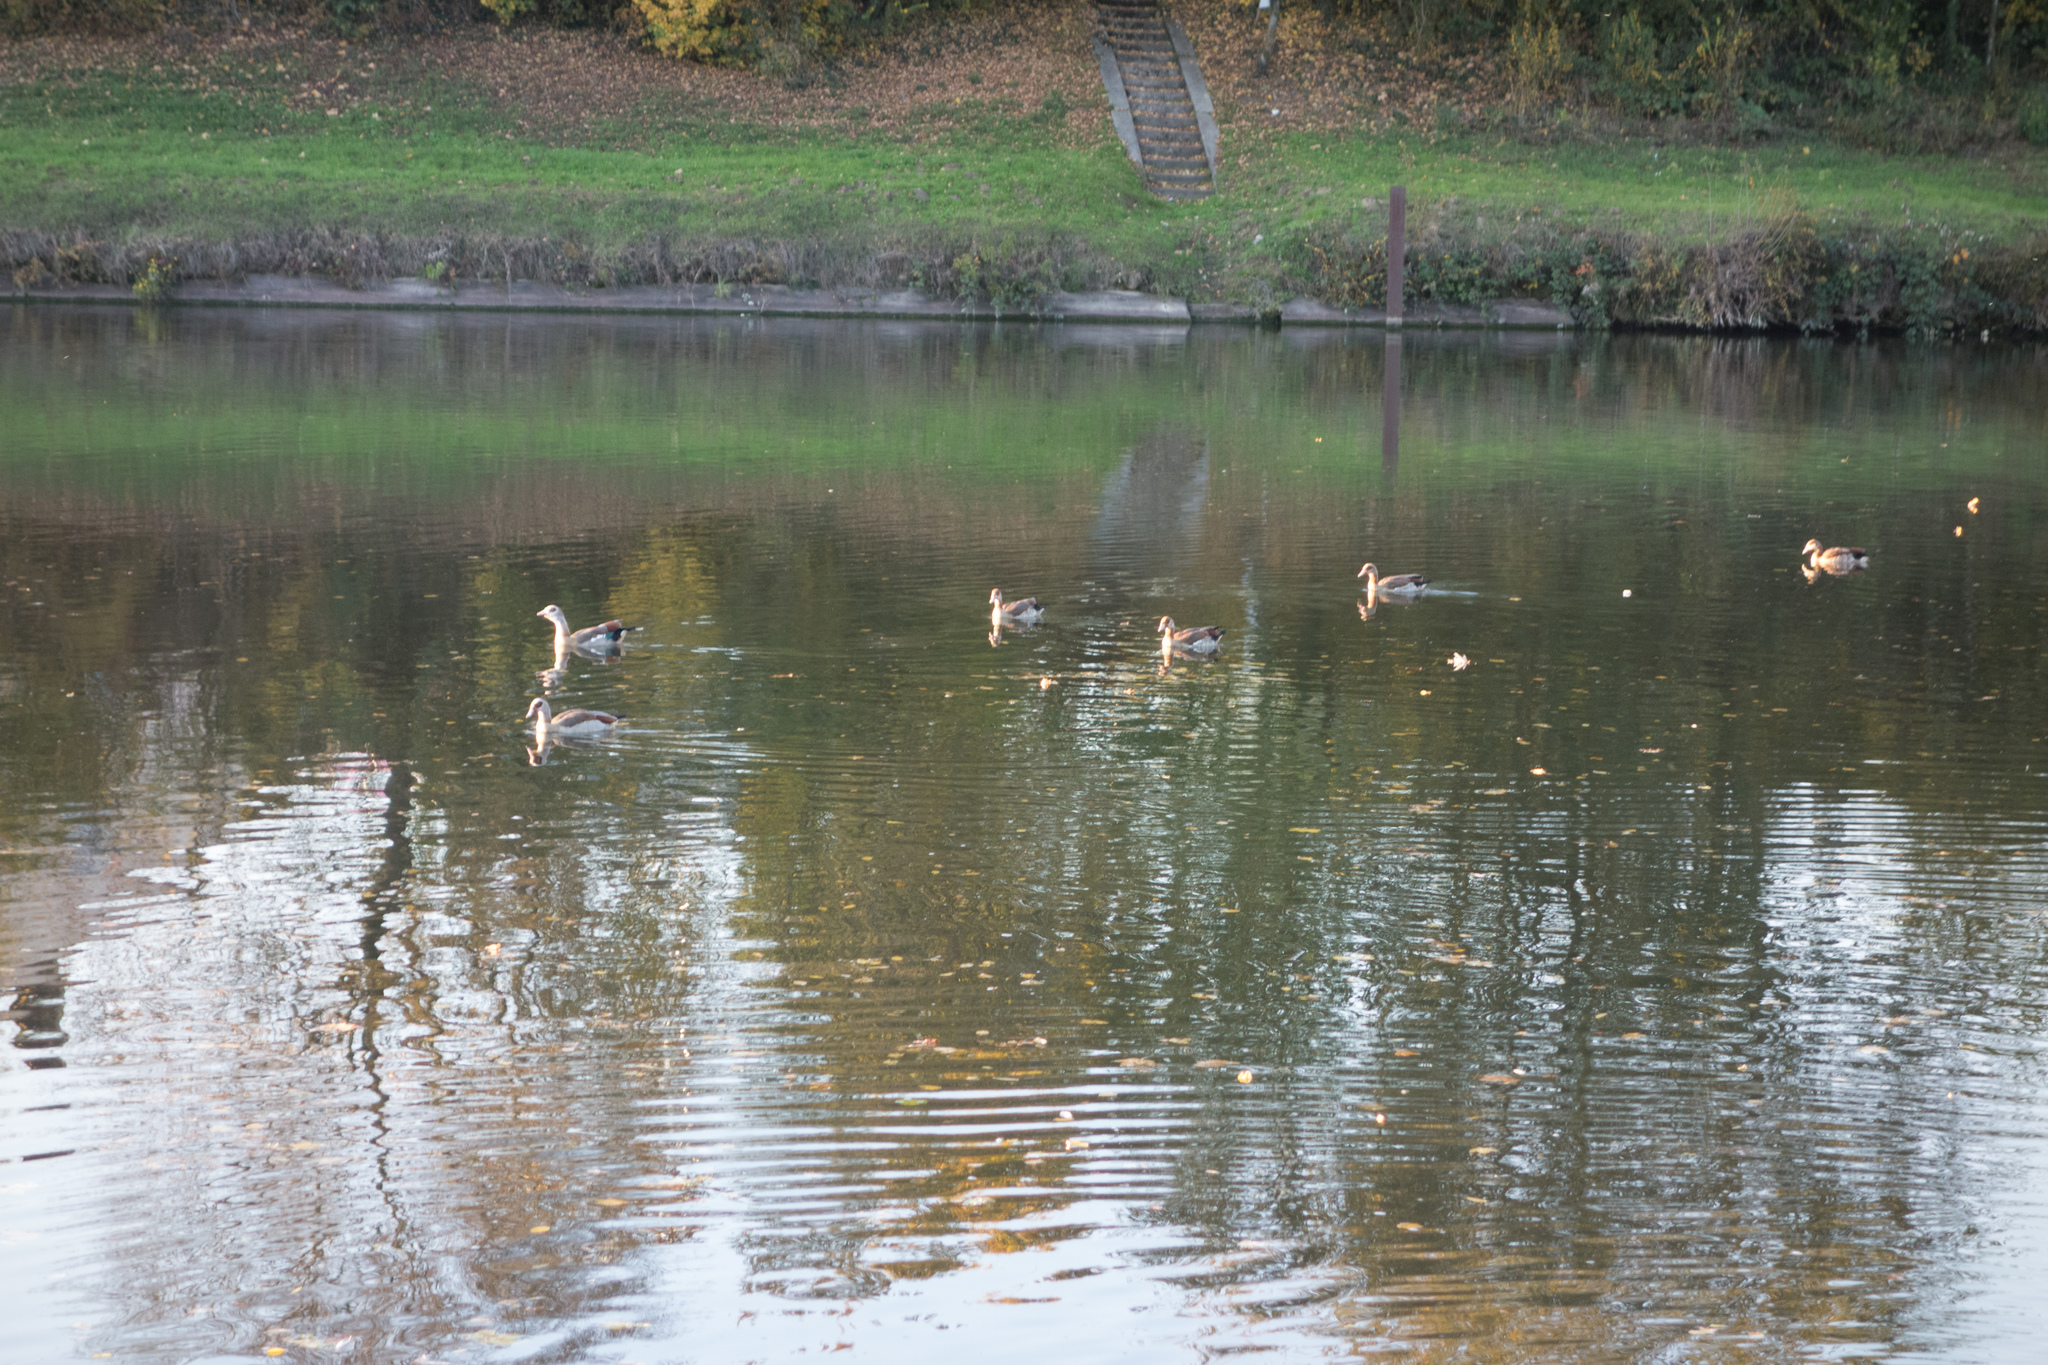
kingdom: Animalia
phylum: Chordata
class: Aves
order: Anseriformes
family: Anatidae
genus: Alopochen
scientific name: Alopochen aegyptiaca
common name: Egyptian goose
